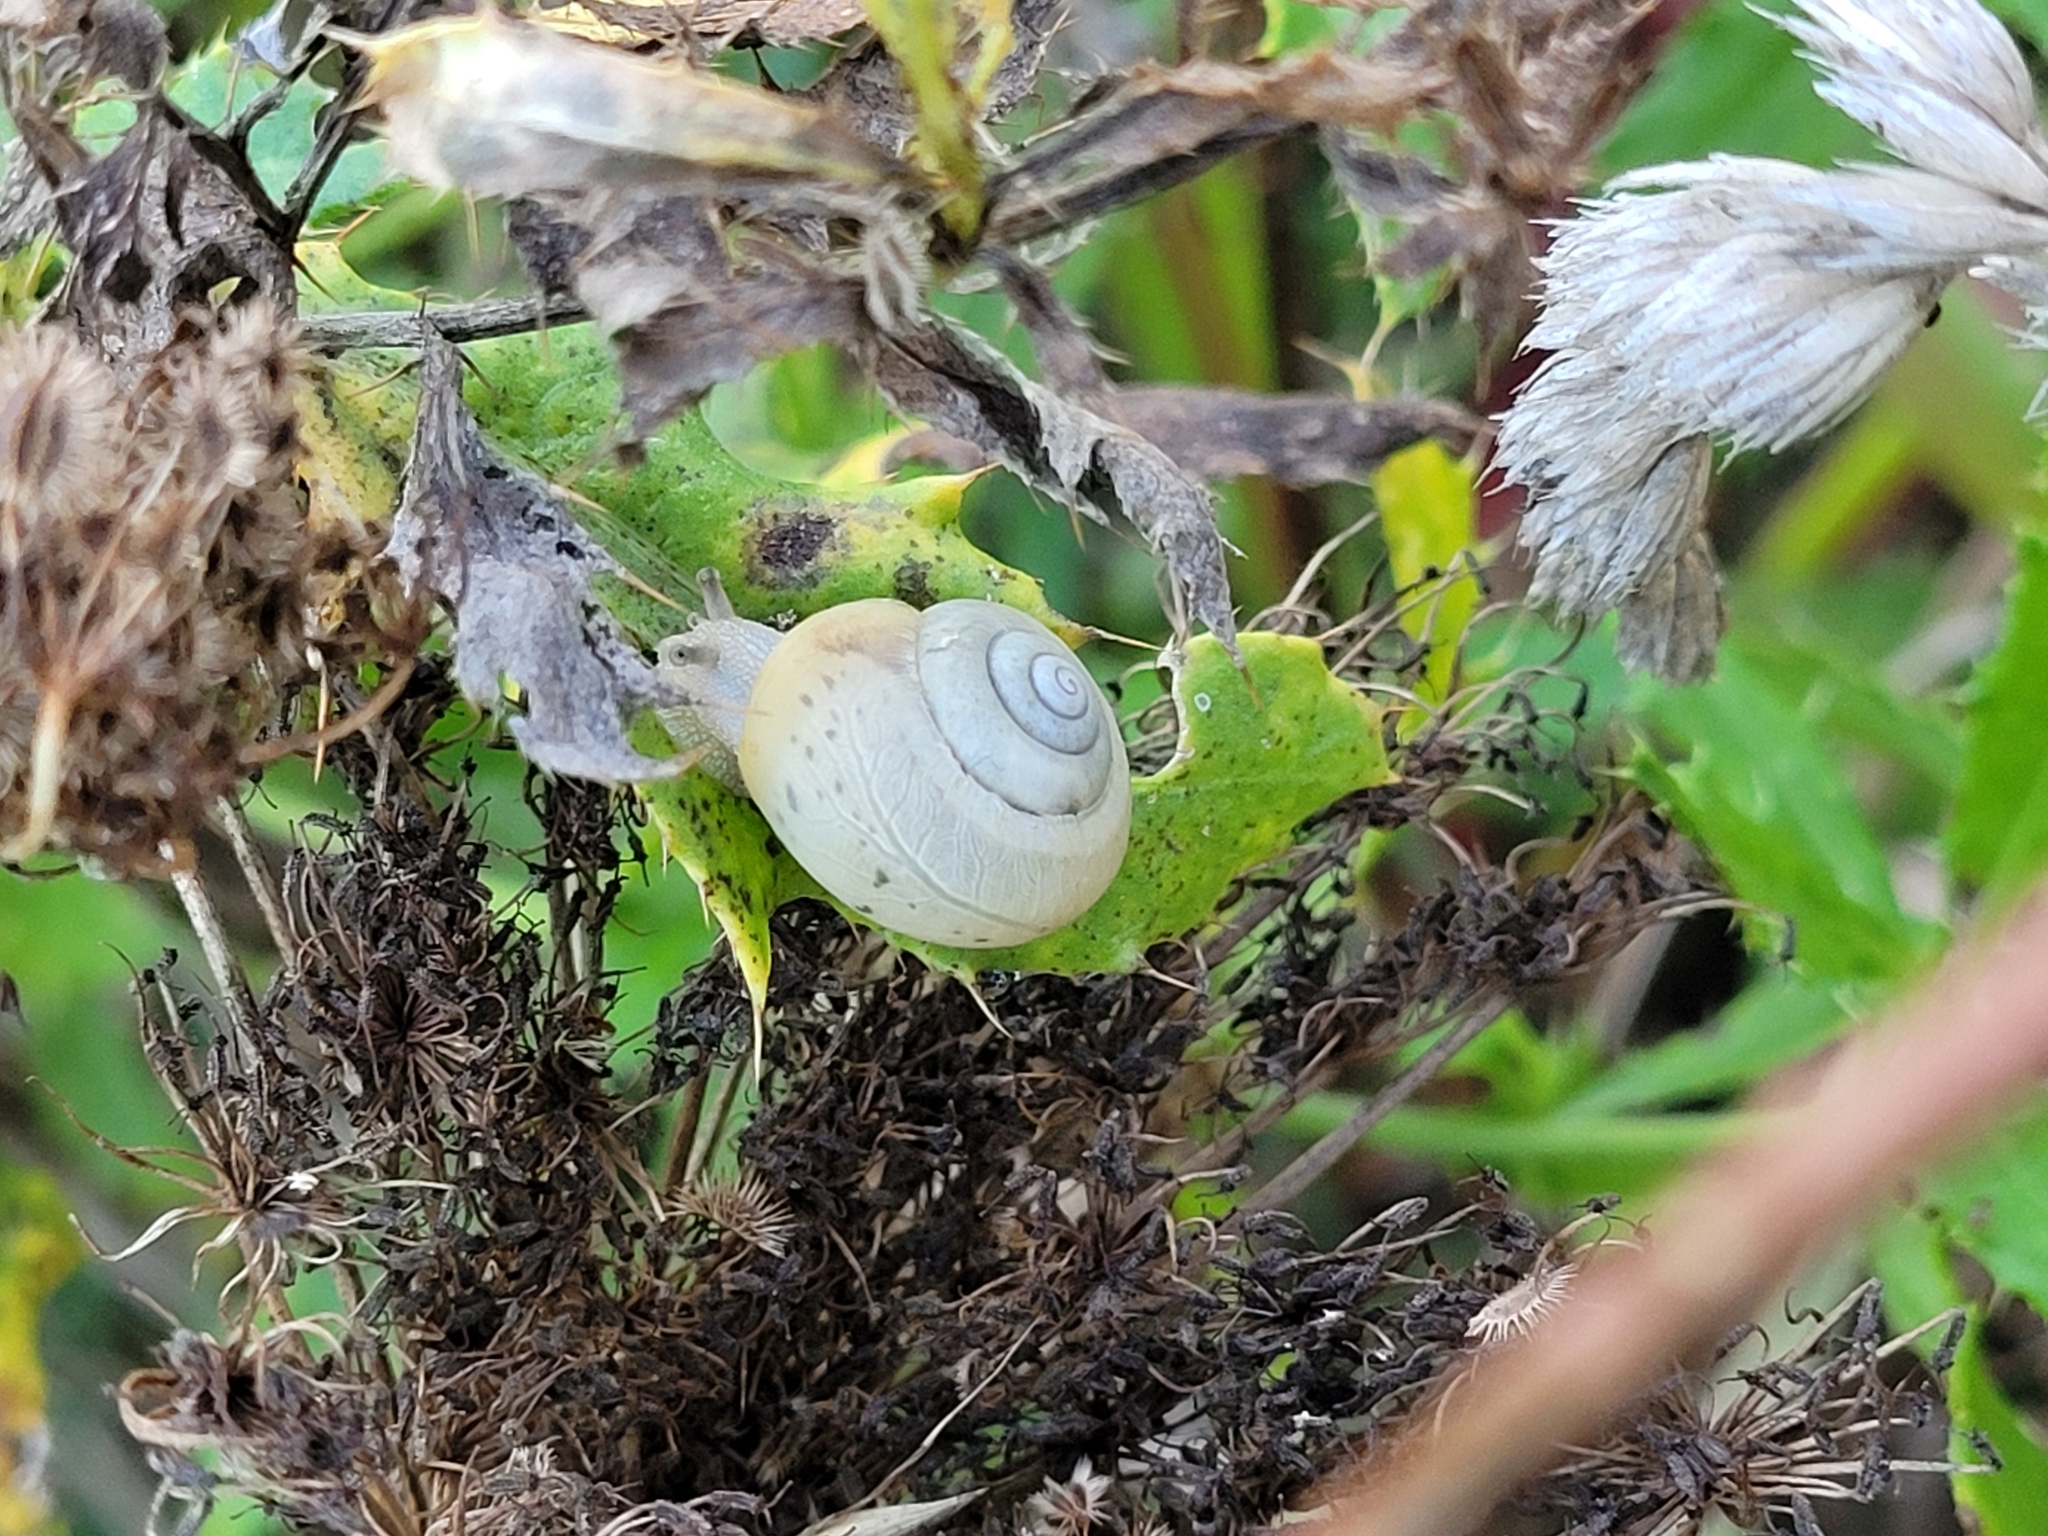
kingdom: Animalia
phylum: Mollusca
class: Gastropoda
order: Stylommatophora
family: Camaenidae
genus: Fruticicola
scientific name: Fruticicola fruticum
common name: Bush snail
